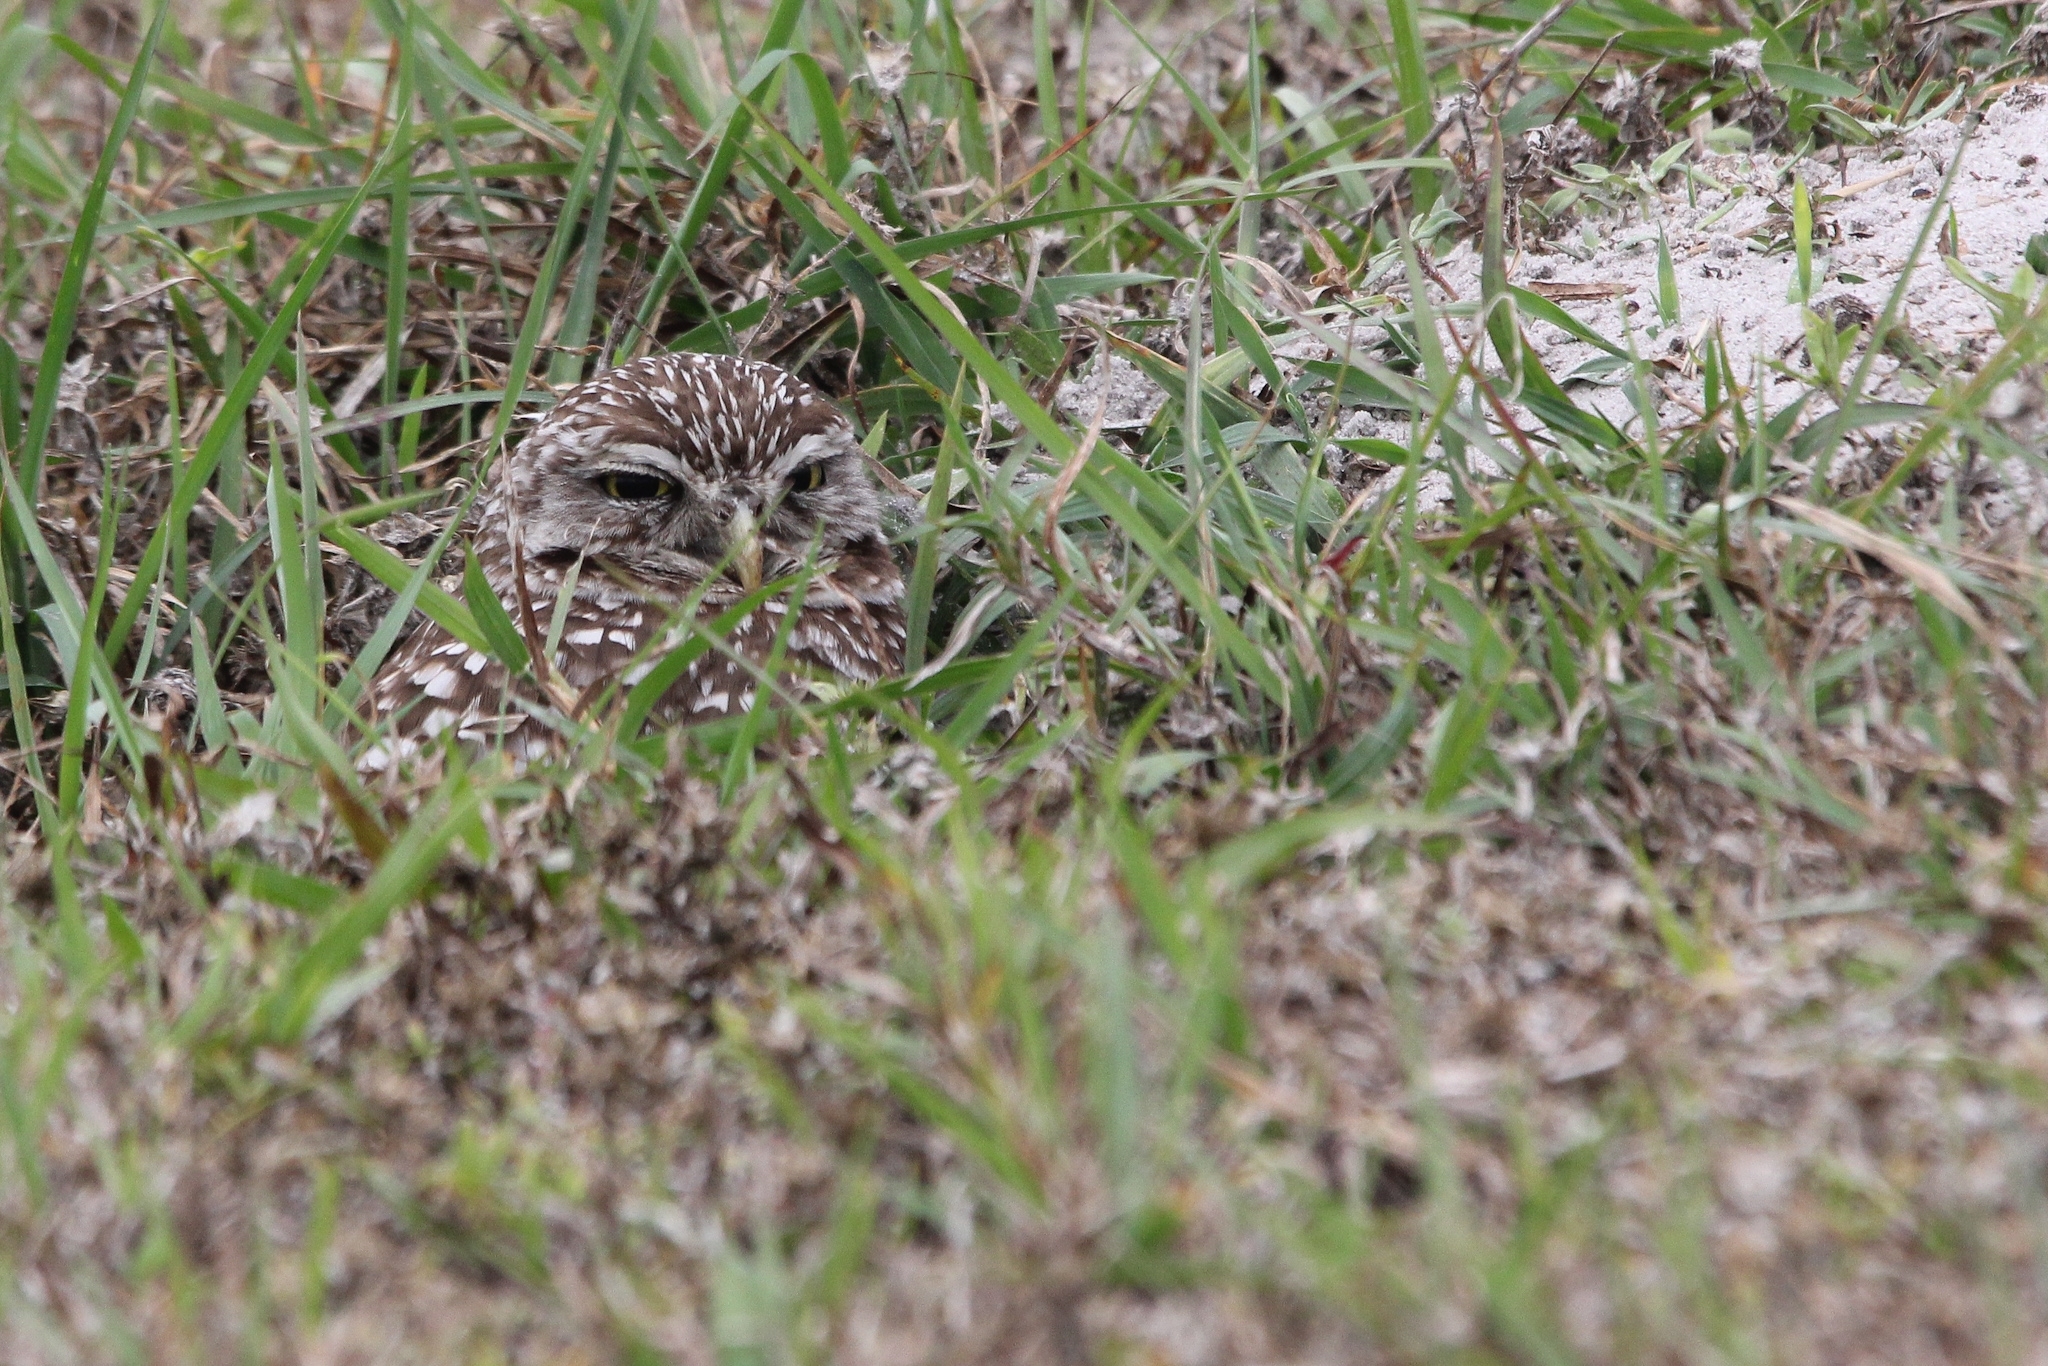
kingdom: Animalia
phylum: Chordata
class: Aves
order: Strigiformes
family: Strigidae
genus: Athene
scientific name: Athene cunicularia
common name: Burrowing owl
